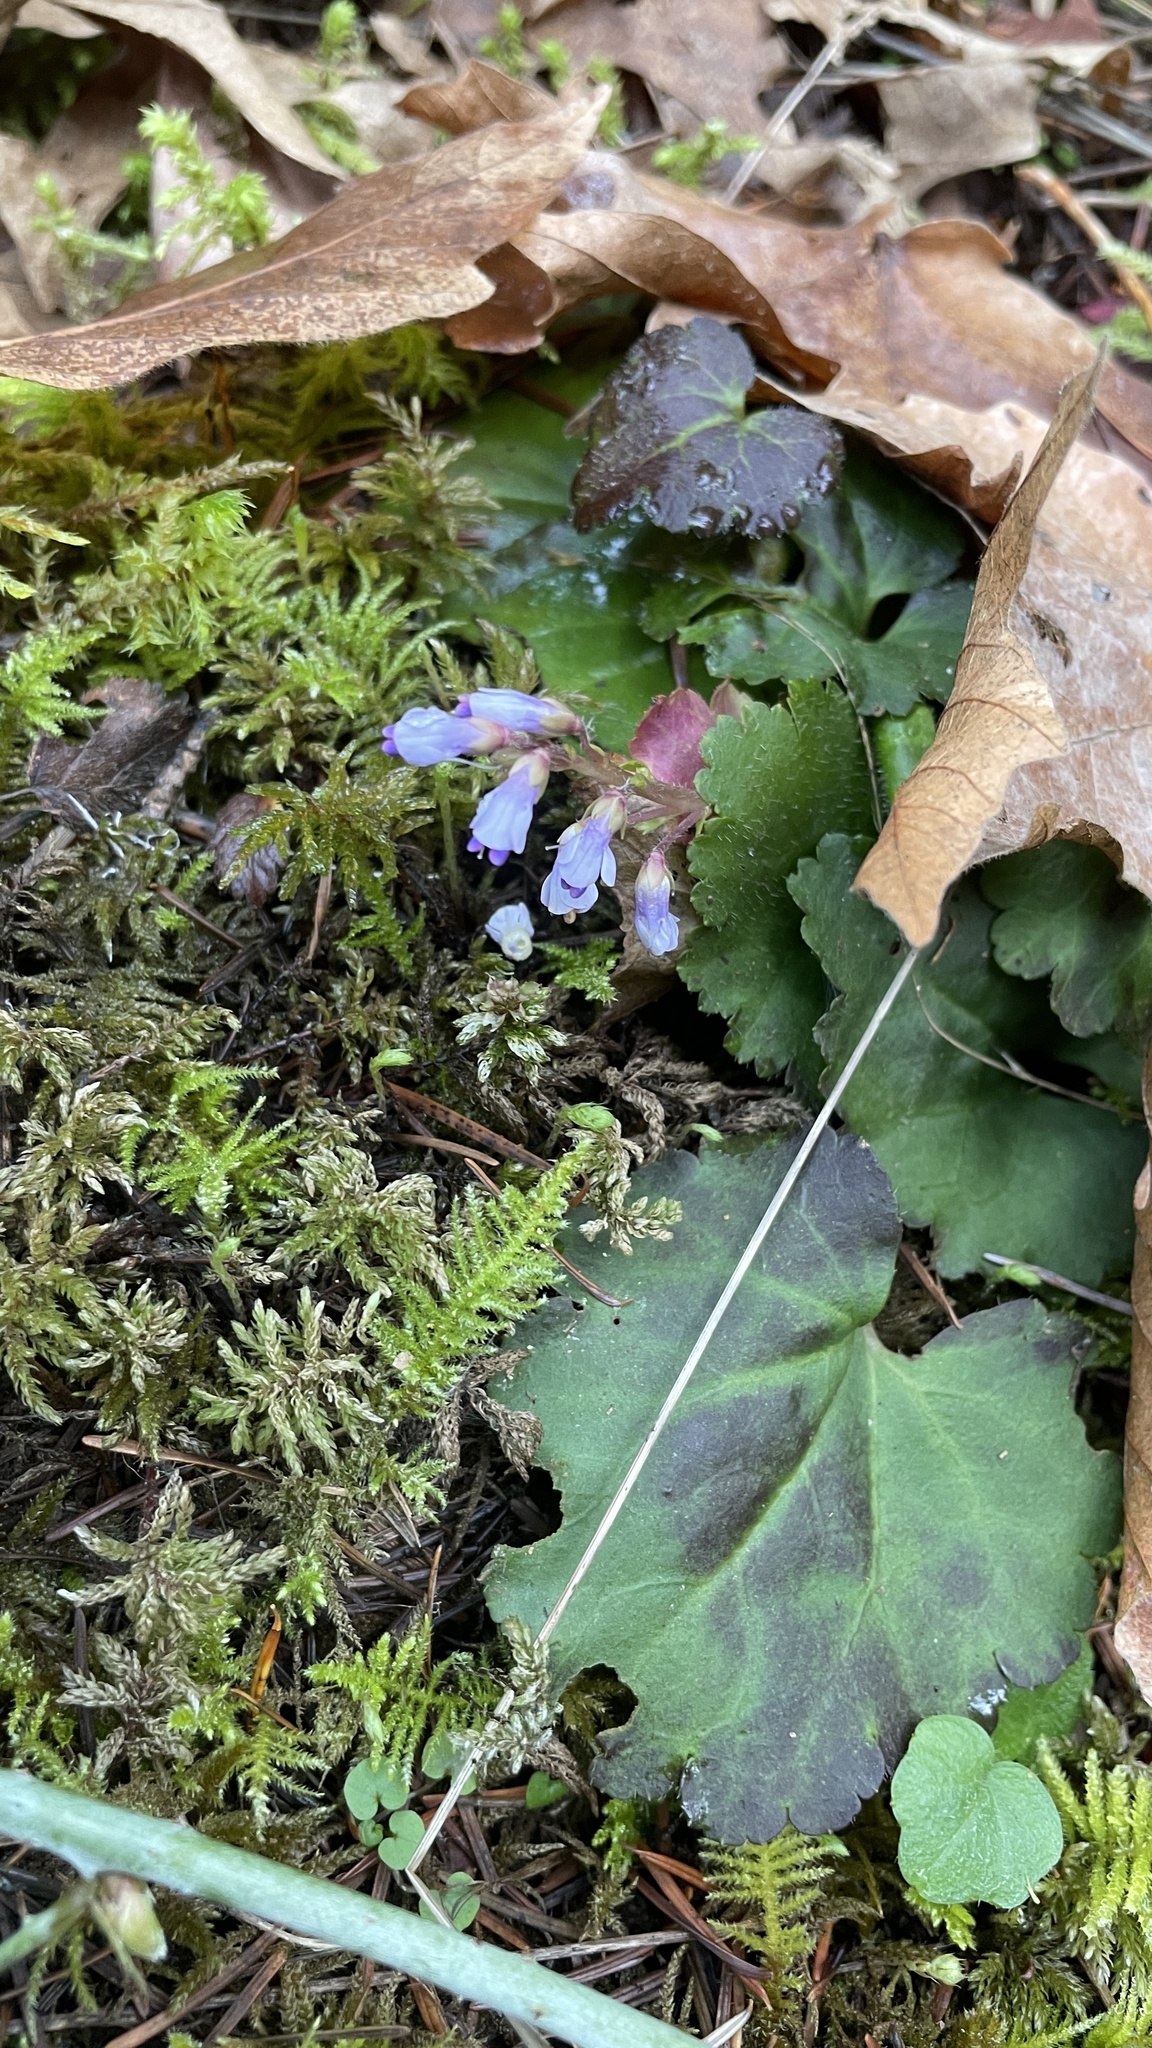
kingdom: Plantae
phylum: Tracheophyta
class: Magnoliopsida
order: Lamiales
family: Plantaginaceae
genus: Synthyris
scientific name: Synthyris reniformis
